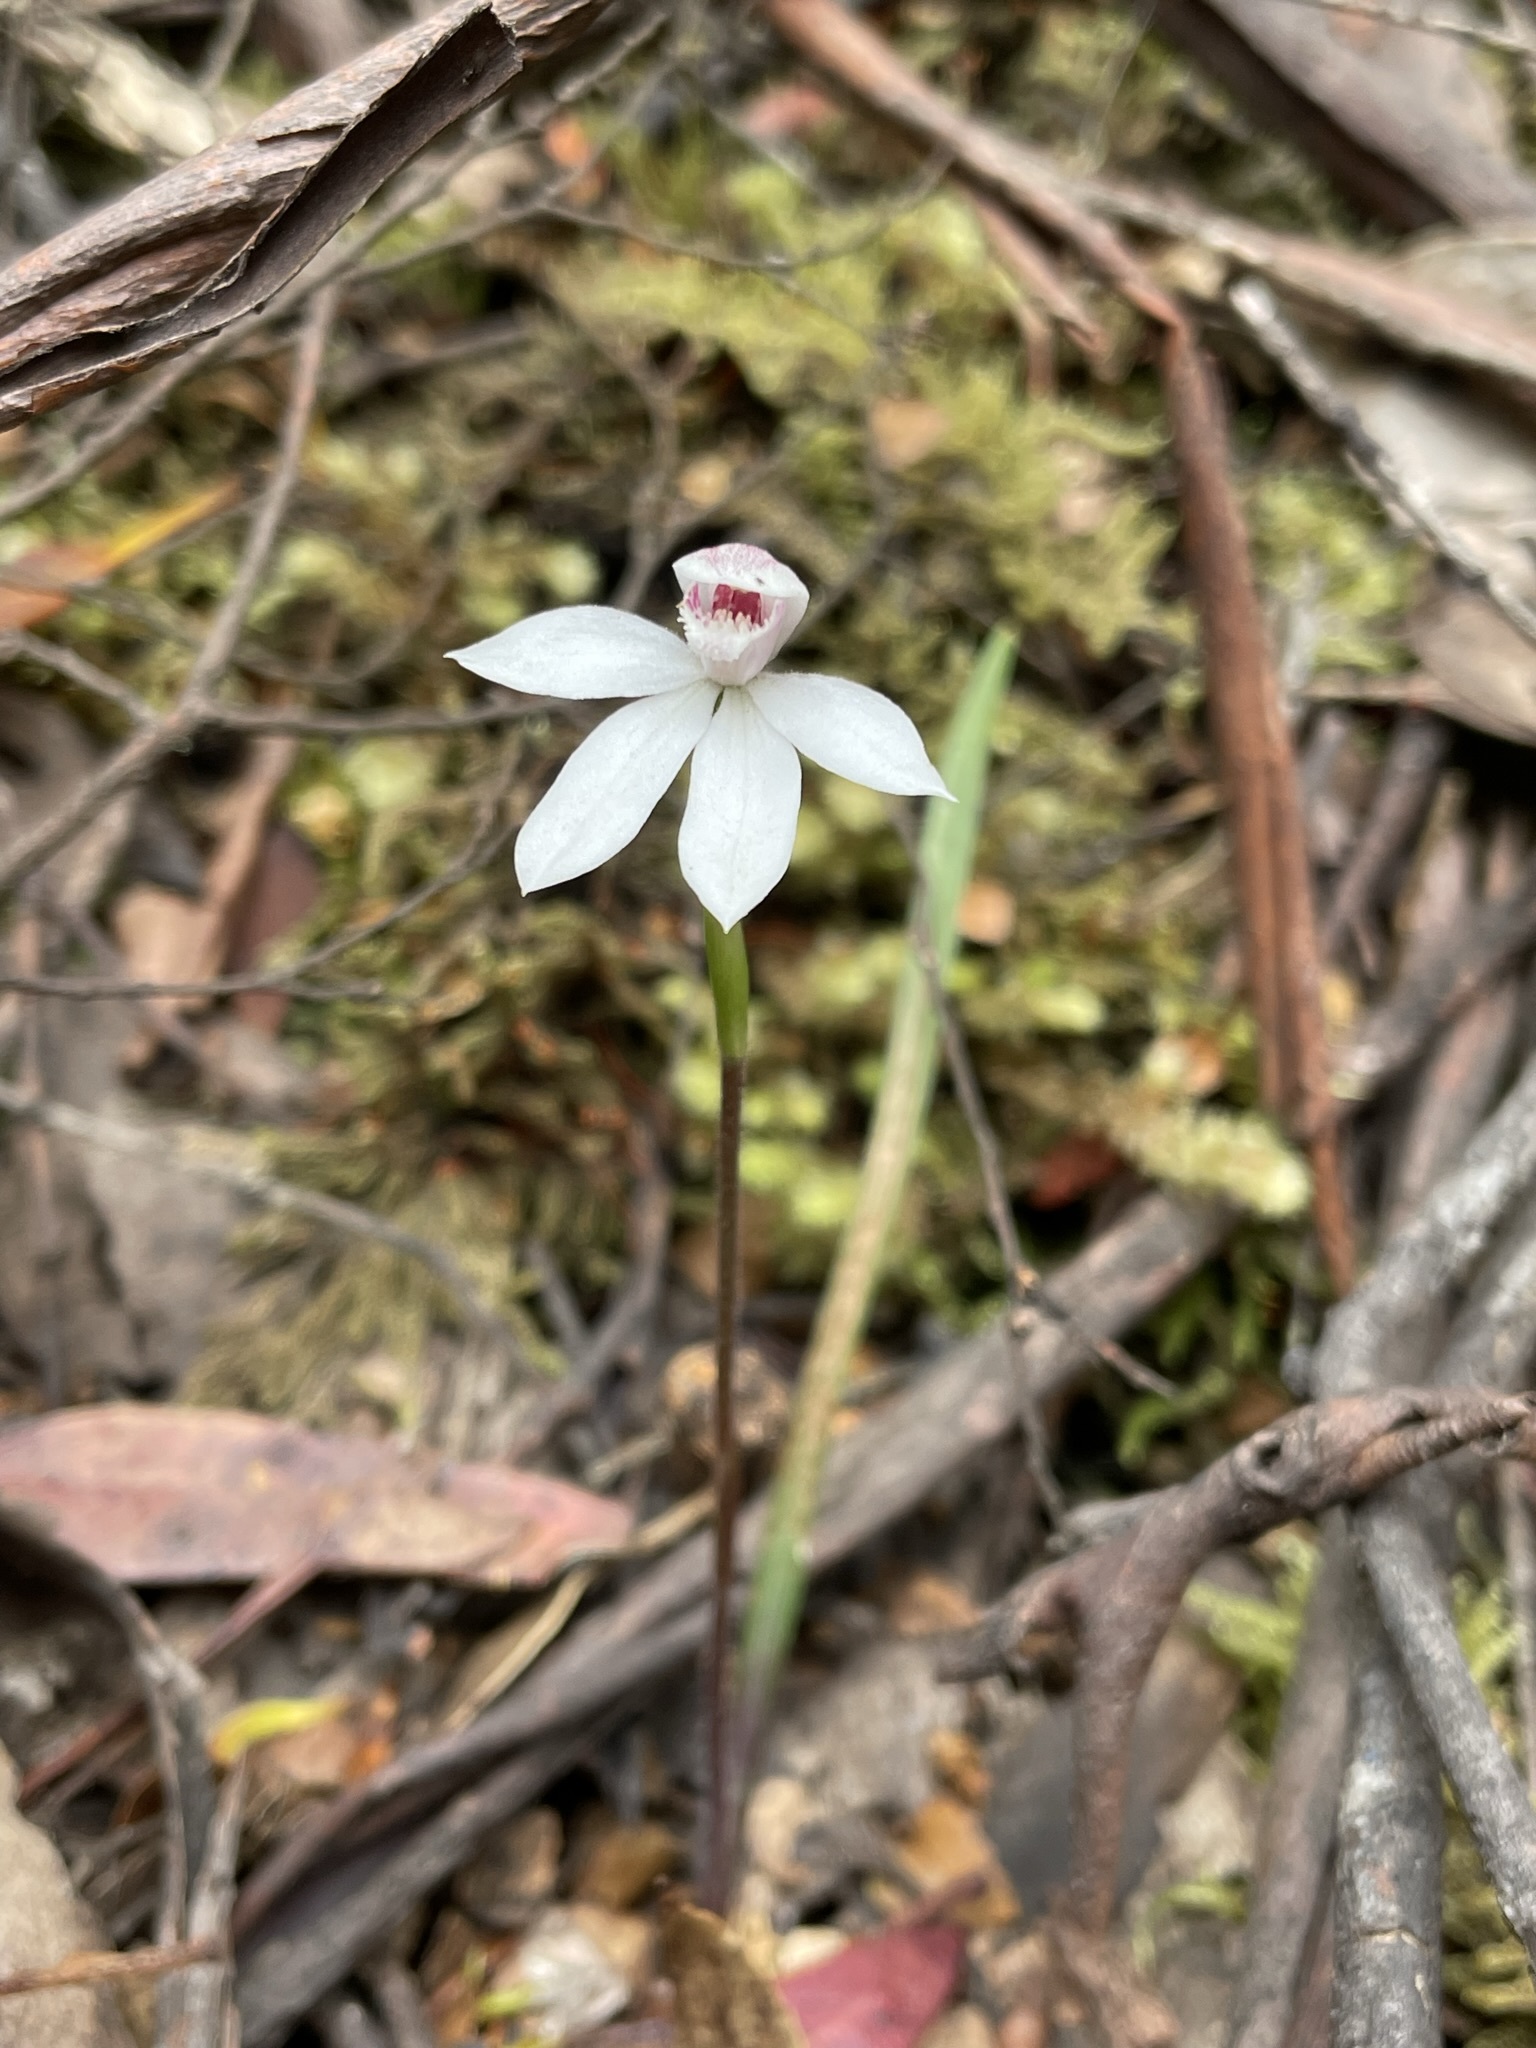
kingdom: Plantae
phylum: Tracheophyta
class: Liliopsida
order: Asparagales
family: Orchidaceae
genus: Caladenia
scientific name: Caladenia alpina
